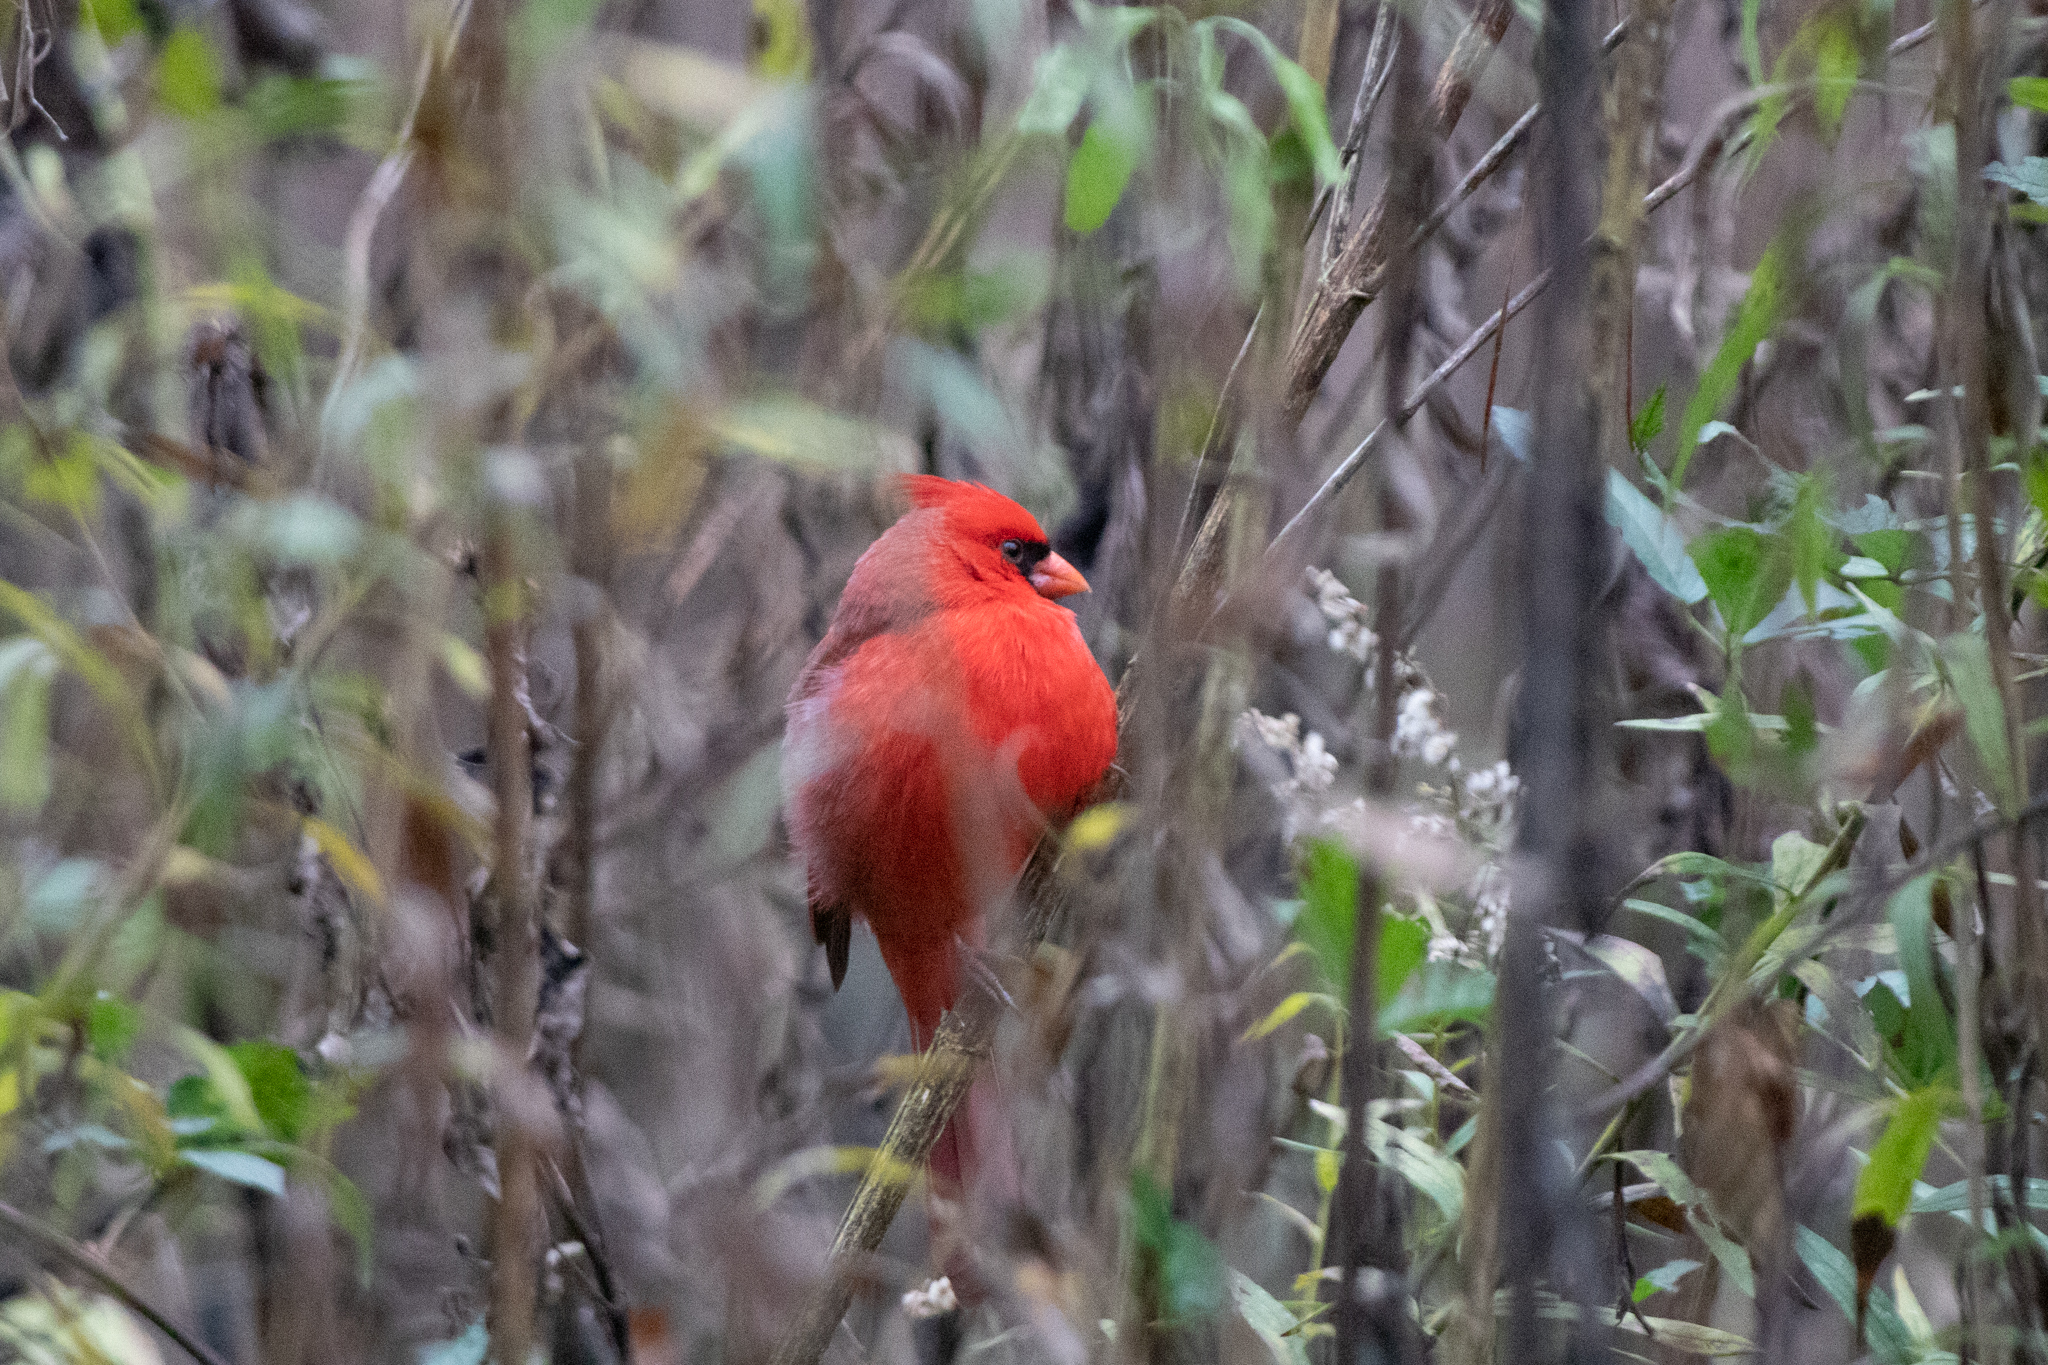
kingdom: Animalia
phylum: Chordata
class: Aves
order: Passeriformes
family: Cardinalidae
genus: Cardinalis
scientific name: Cardinalis cardinalis
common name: Northern cardinal
